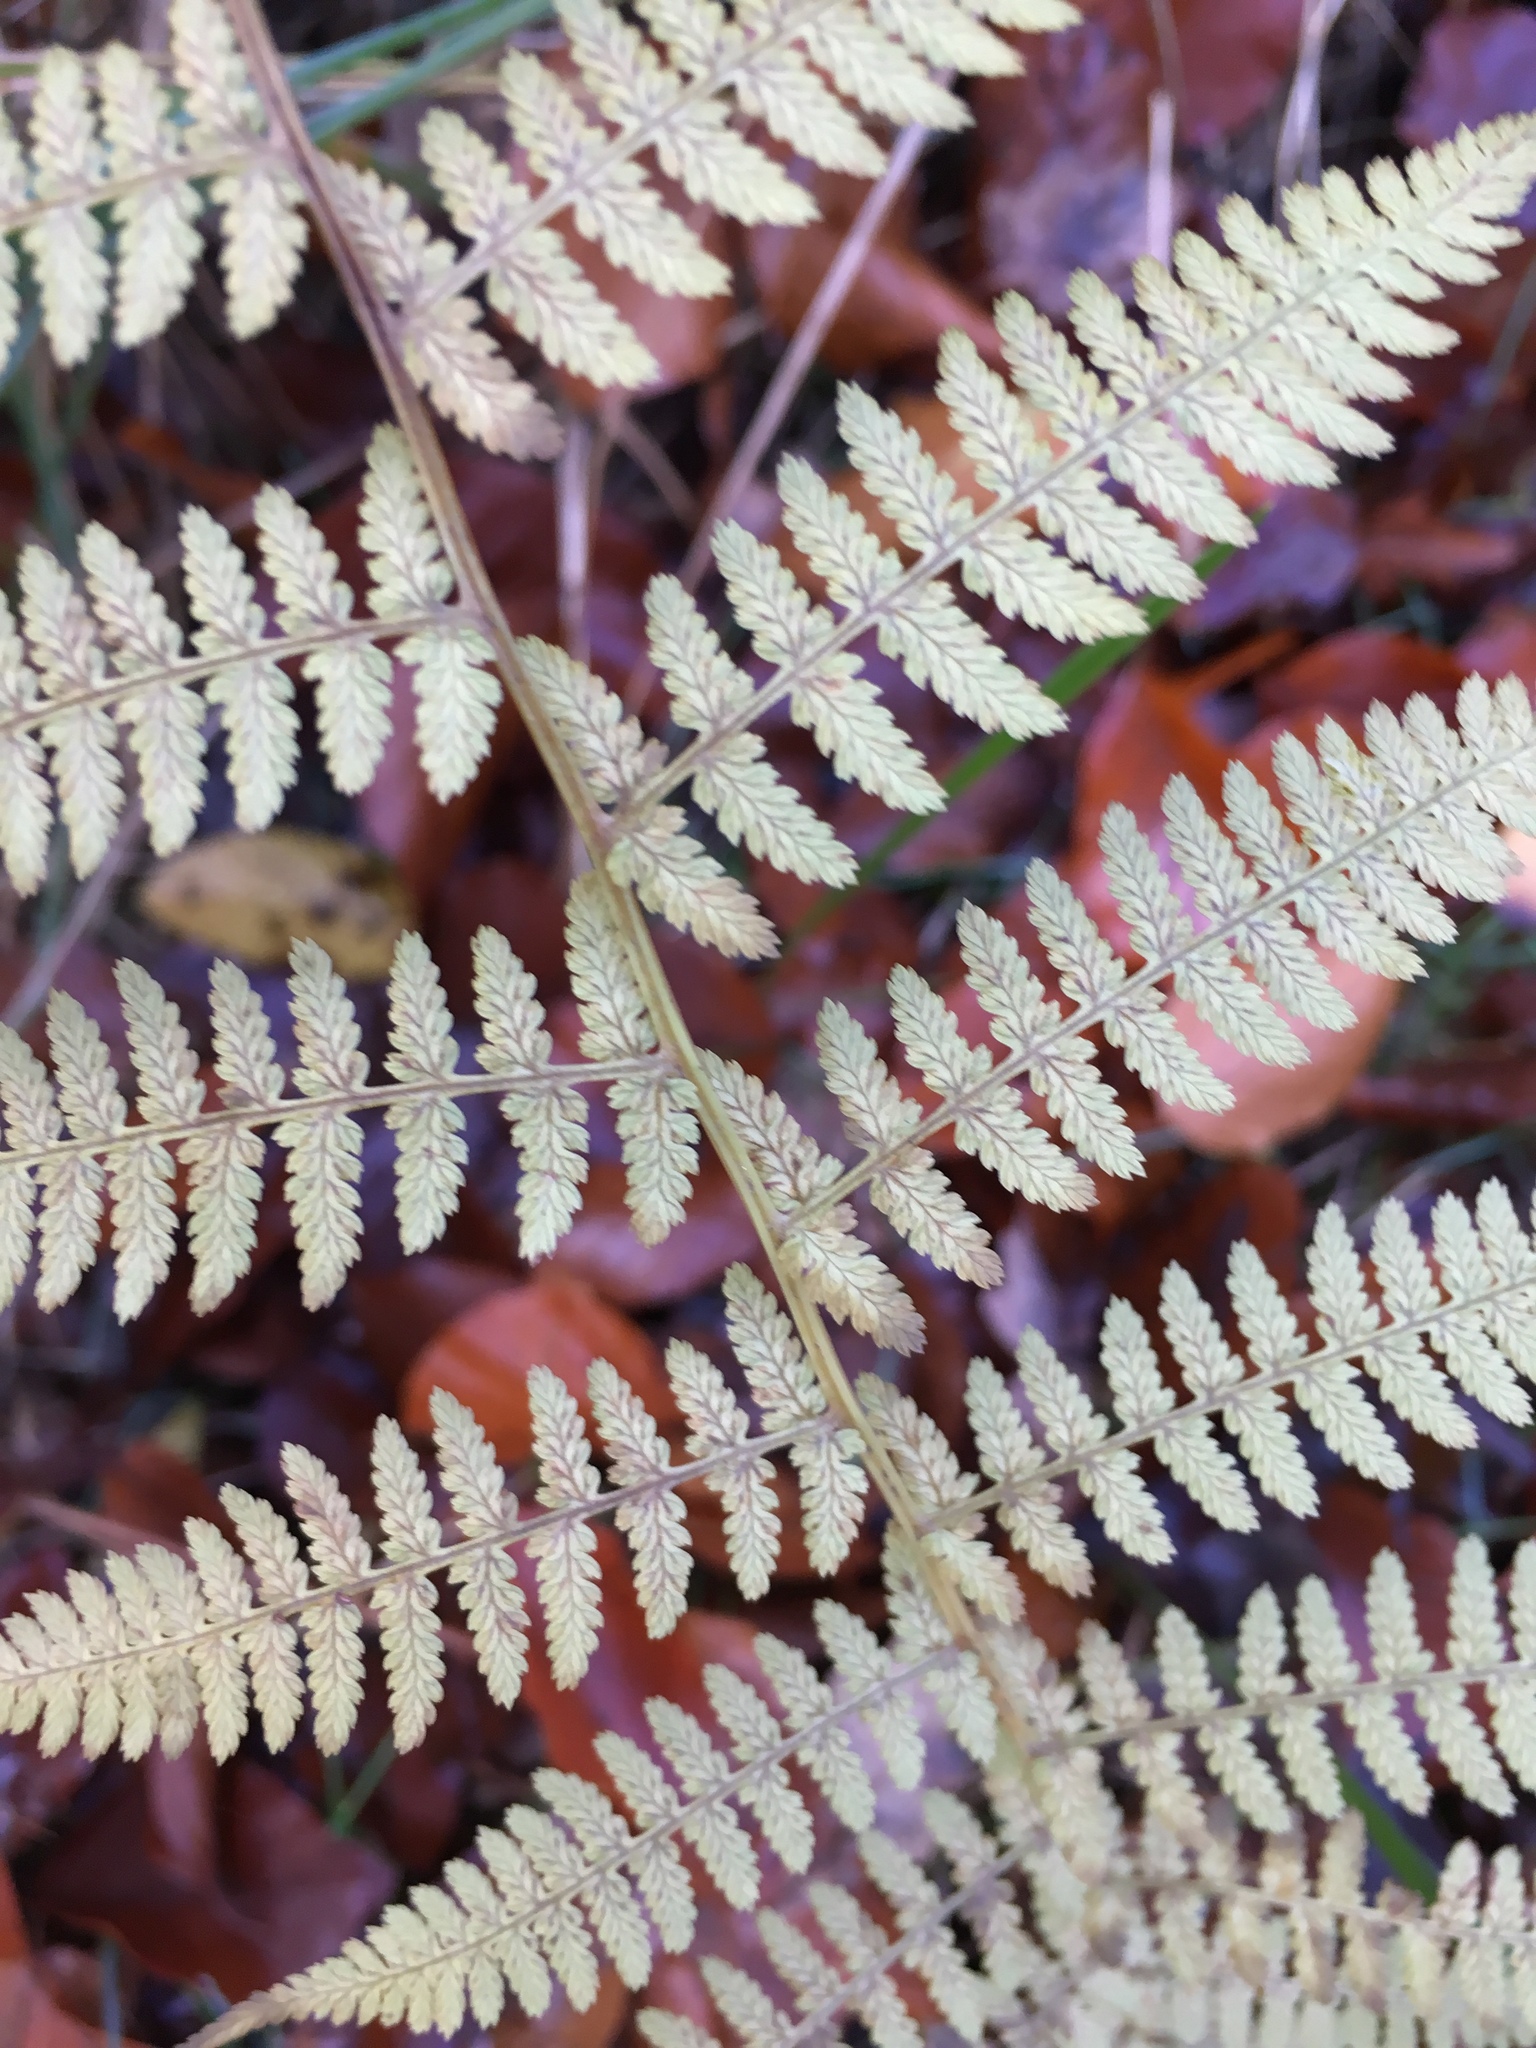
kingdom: Plantae
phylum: Tracheophyta
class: Polypodiopsida
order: Polypodiales
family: Athyriaceae
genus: Athyrium
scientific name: Athyrium filix-femina
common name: Lady fern
